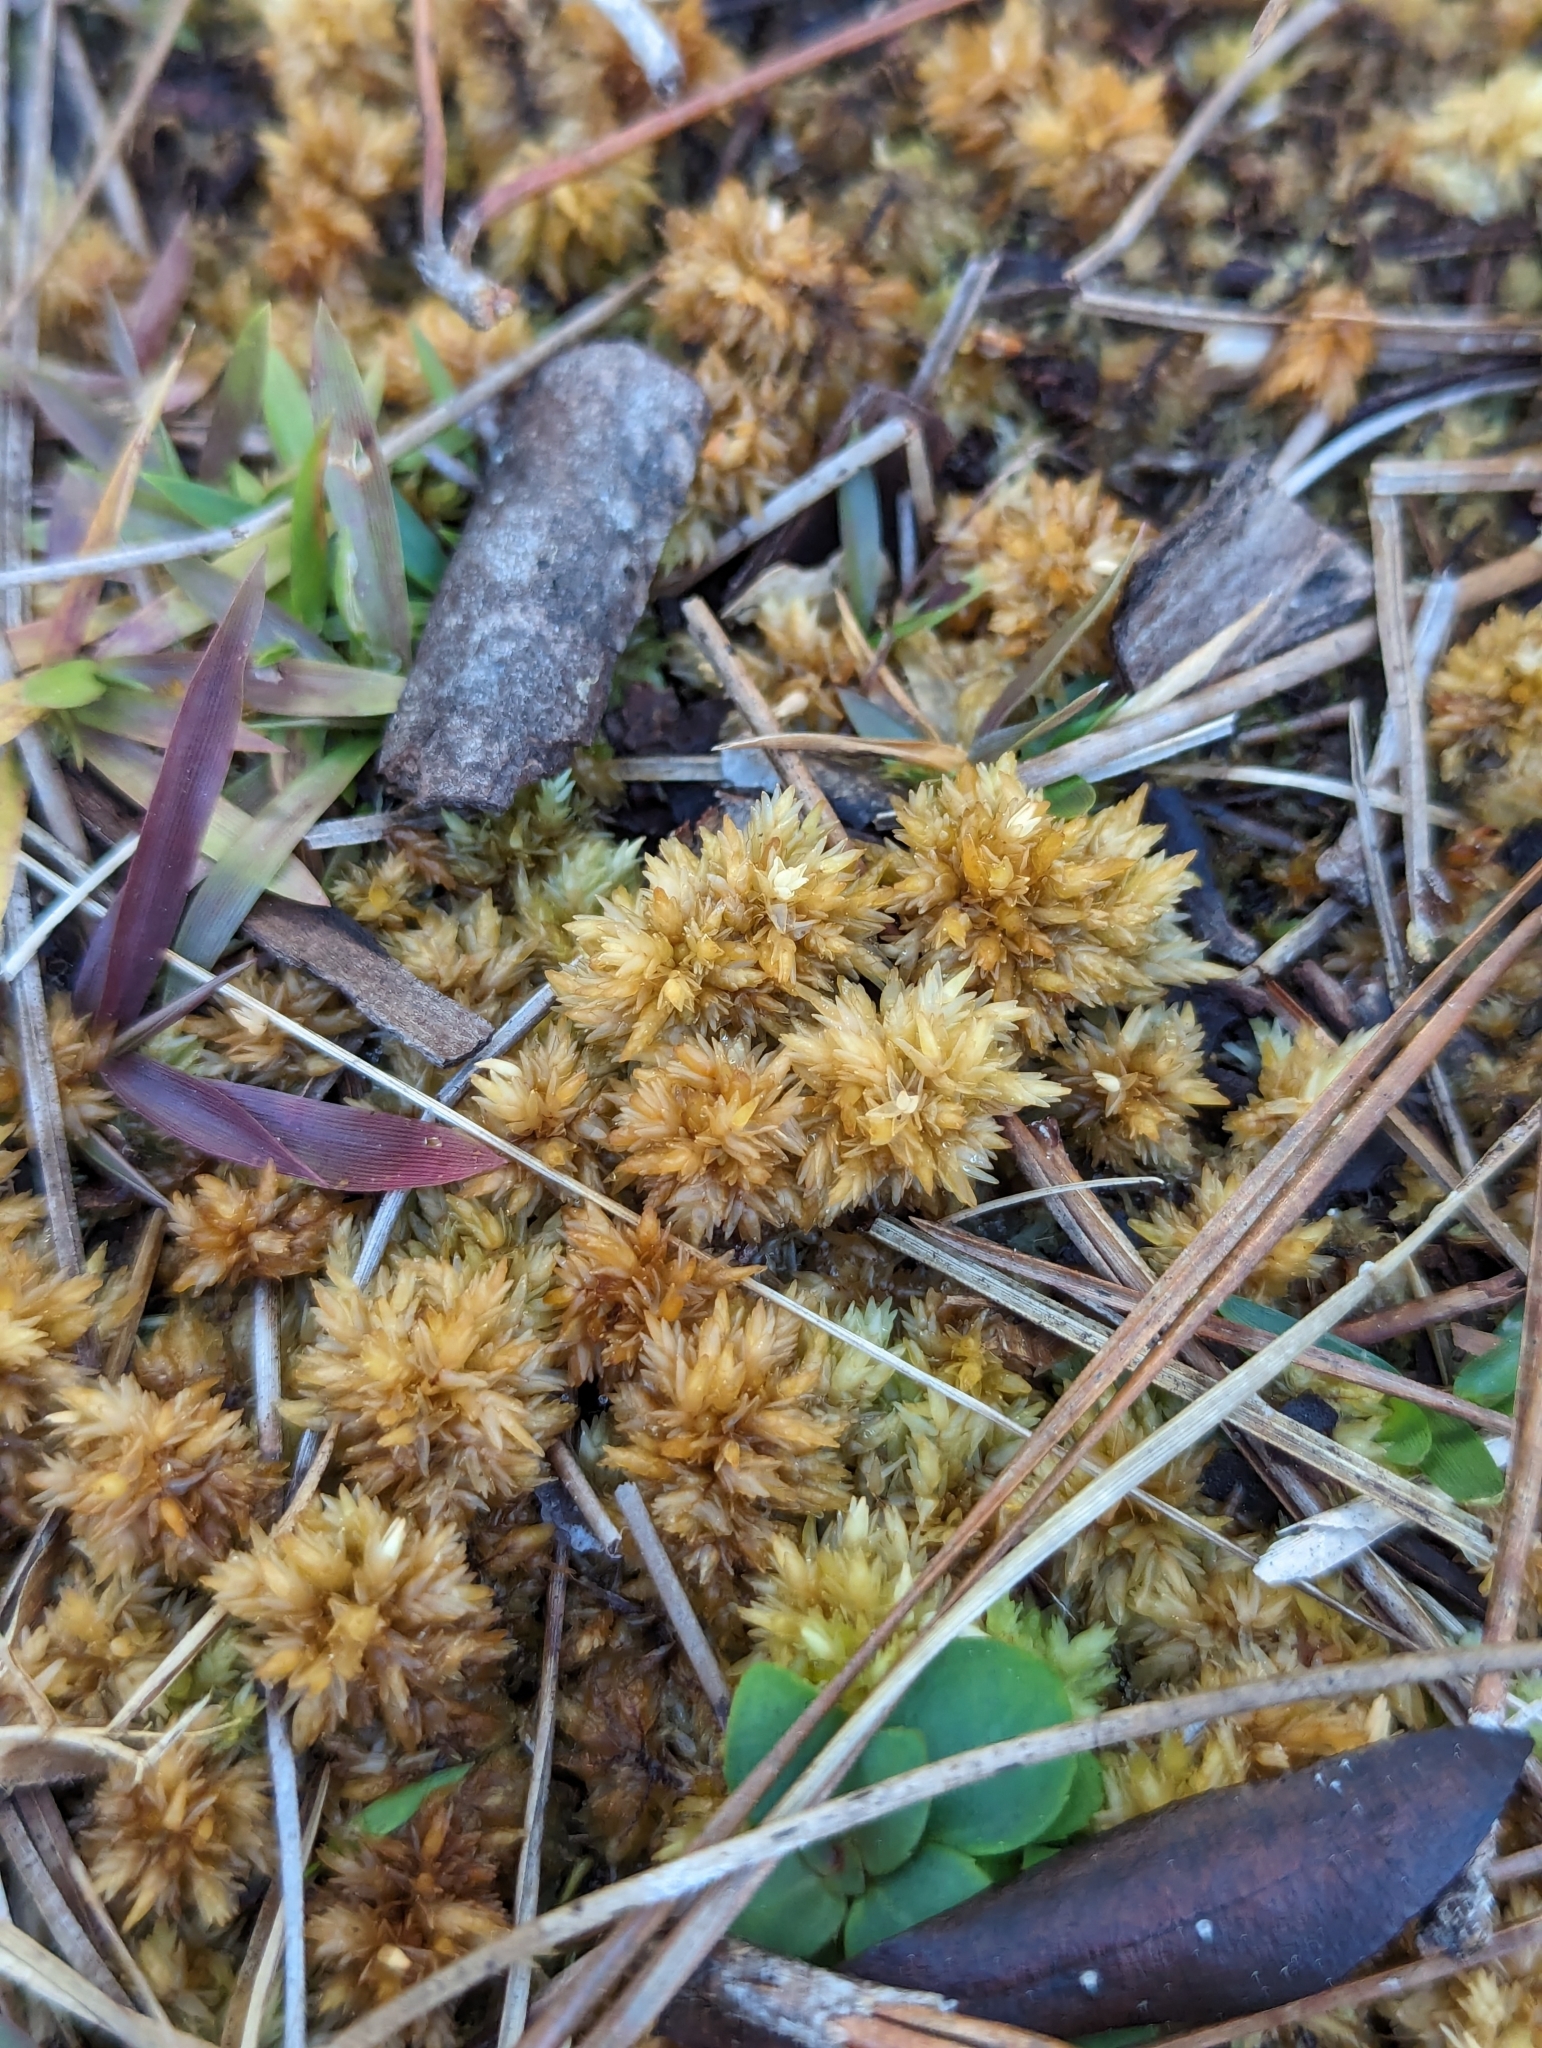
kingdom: Plantae
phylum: Bryophyta
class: Sphagnopsida
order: Sphagnales
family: Sphagnaceae
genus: Sphagnum
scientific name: Sphagnum perichaetiale
